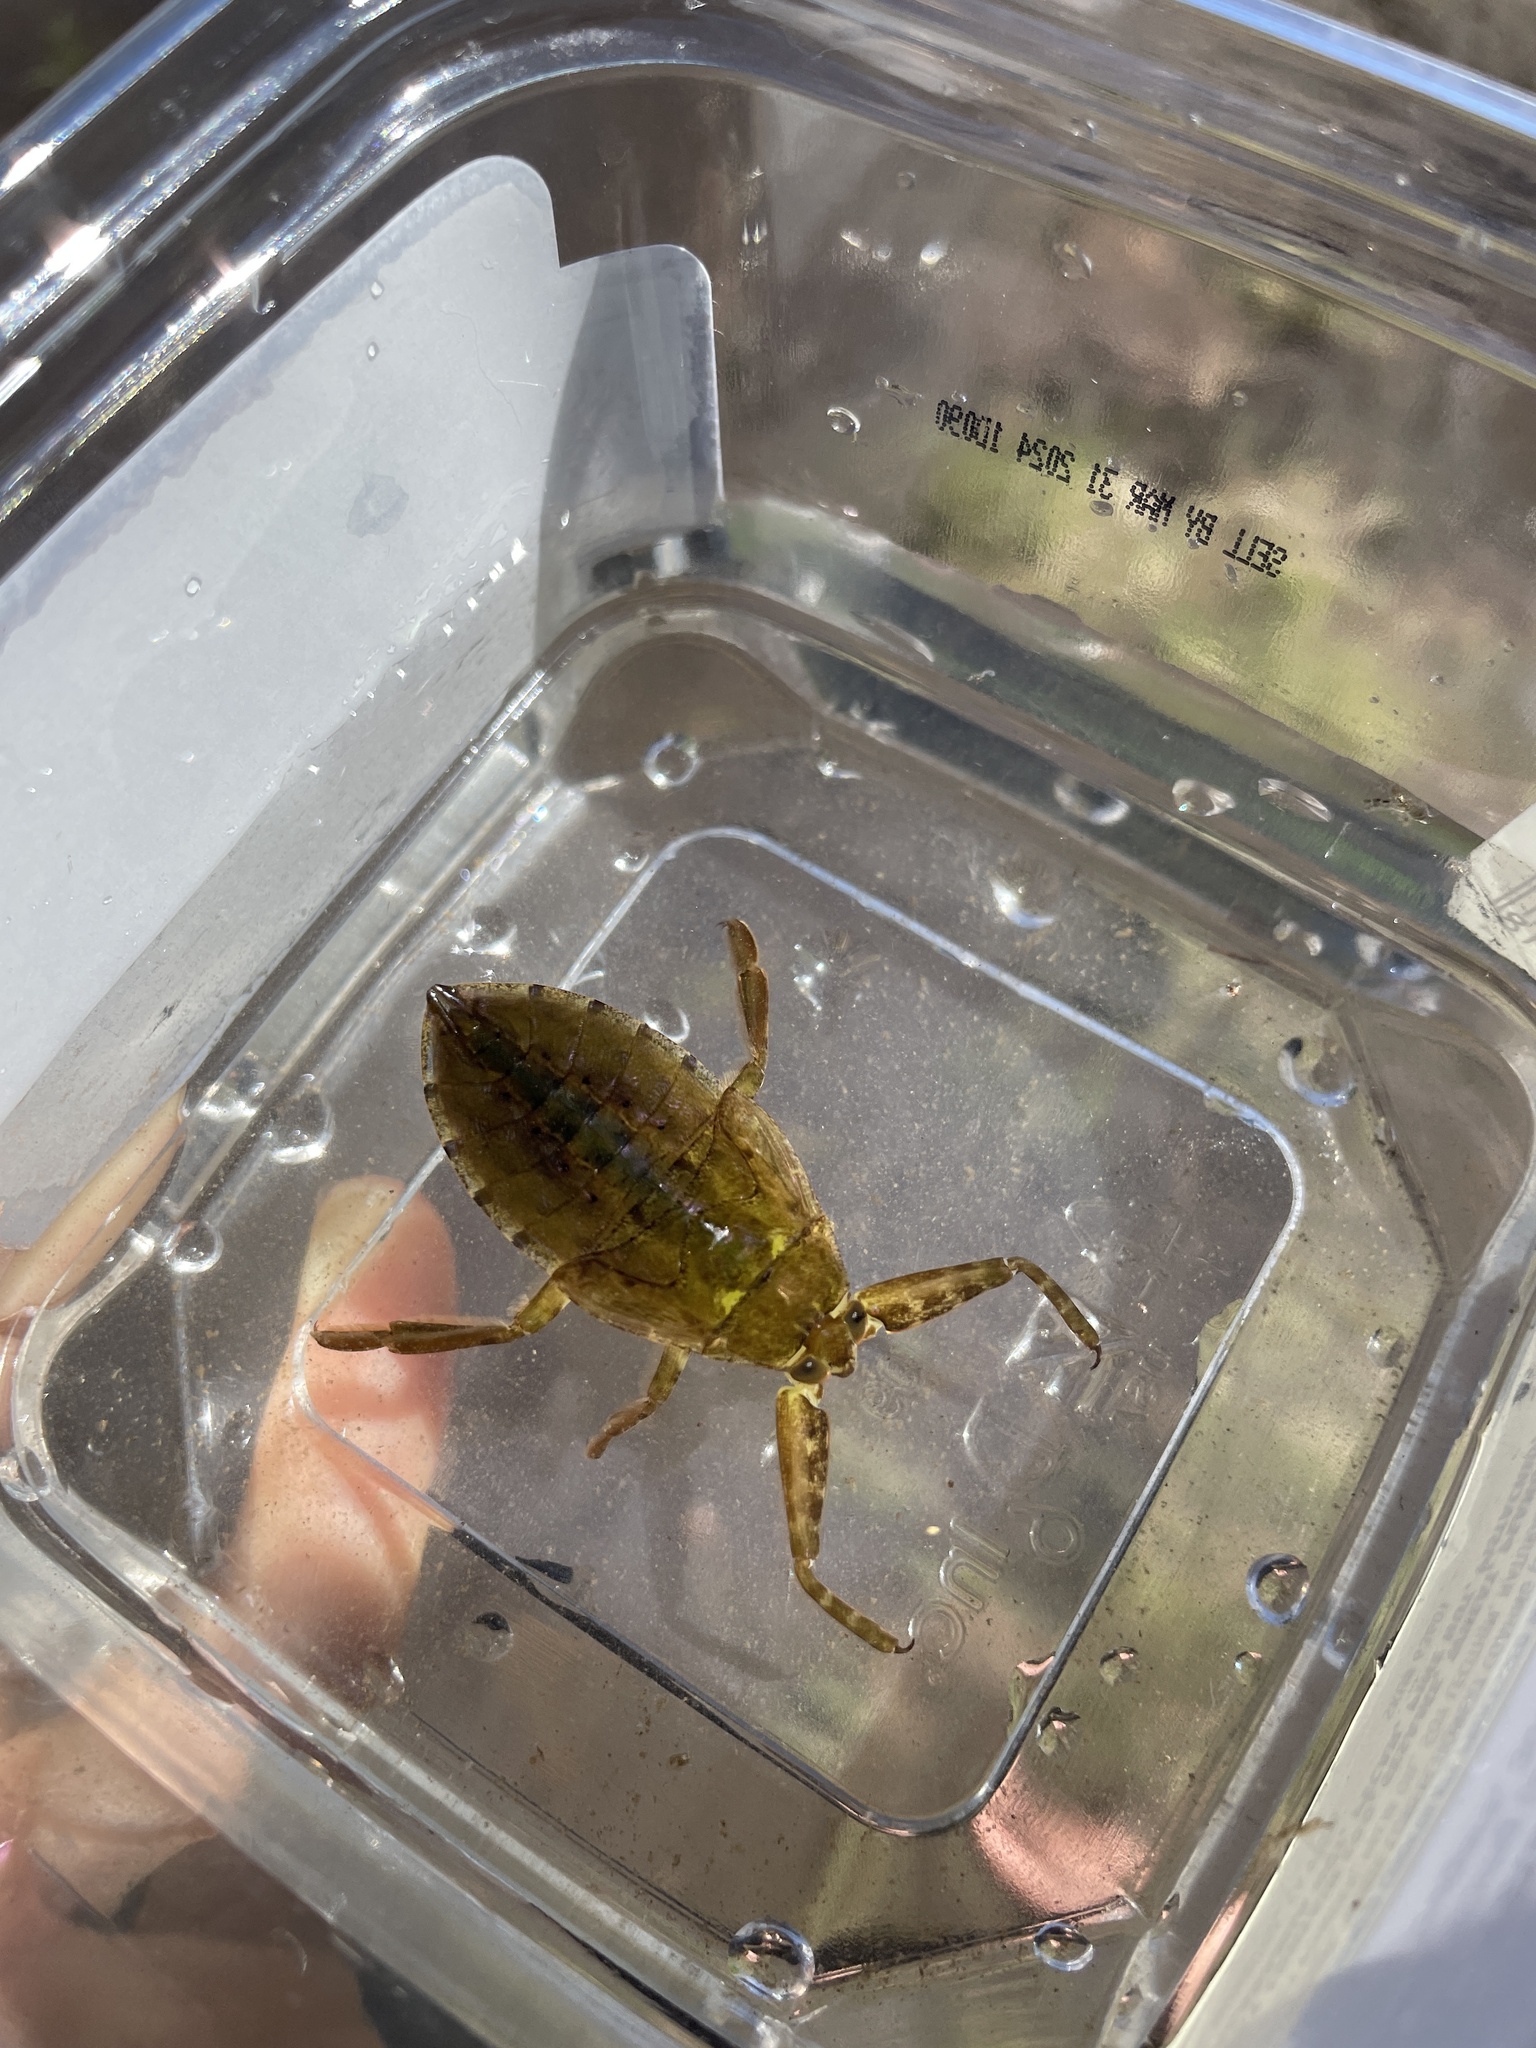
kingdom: Animalia
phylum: Arthropoda
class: Insecta
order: Hemiptera
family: Belostomatidae
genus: Lethocerus
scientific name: Lethocerus americanus
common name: Giant water bug
